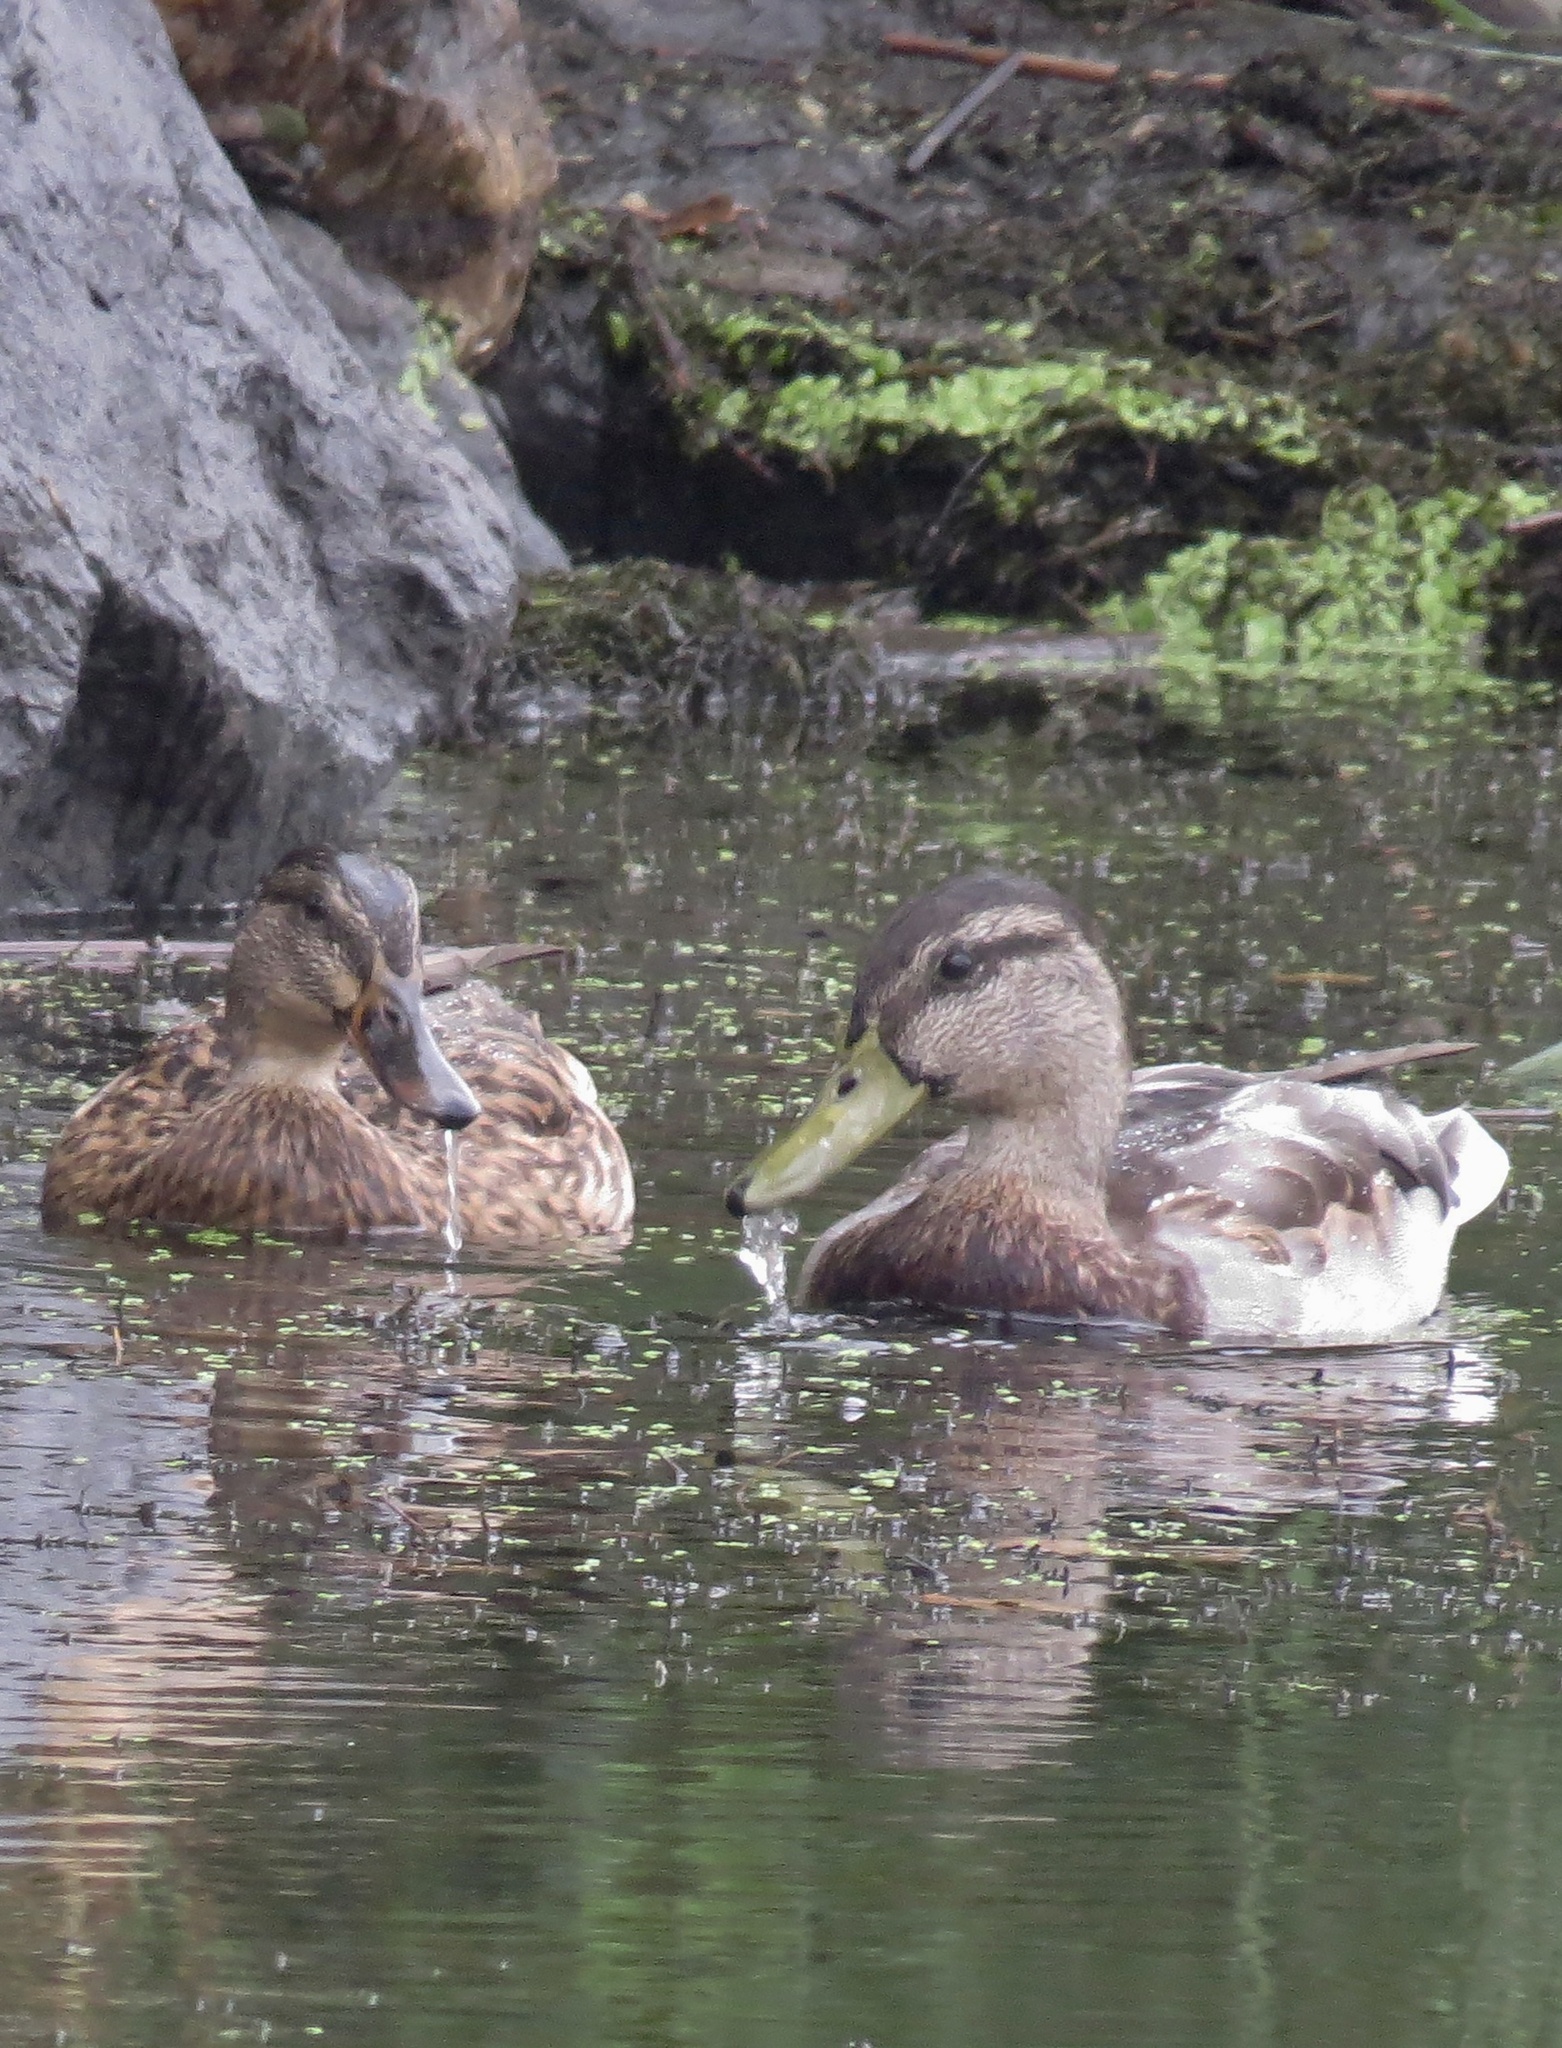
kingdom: Animalia
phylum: Chordata
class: Aves
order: Anseriformes
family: Anatidae
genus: Anas
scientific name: Anas platyrhynchos
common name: Mallard
